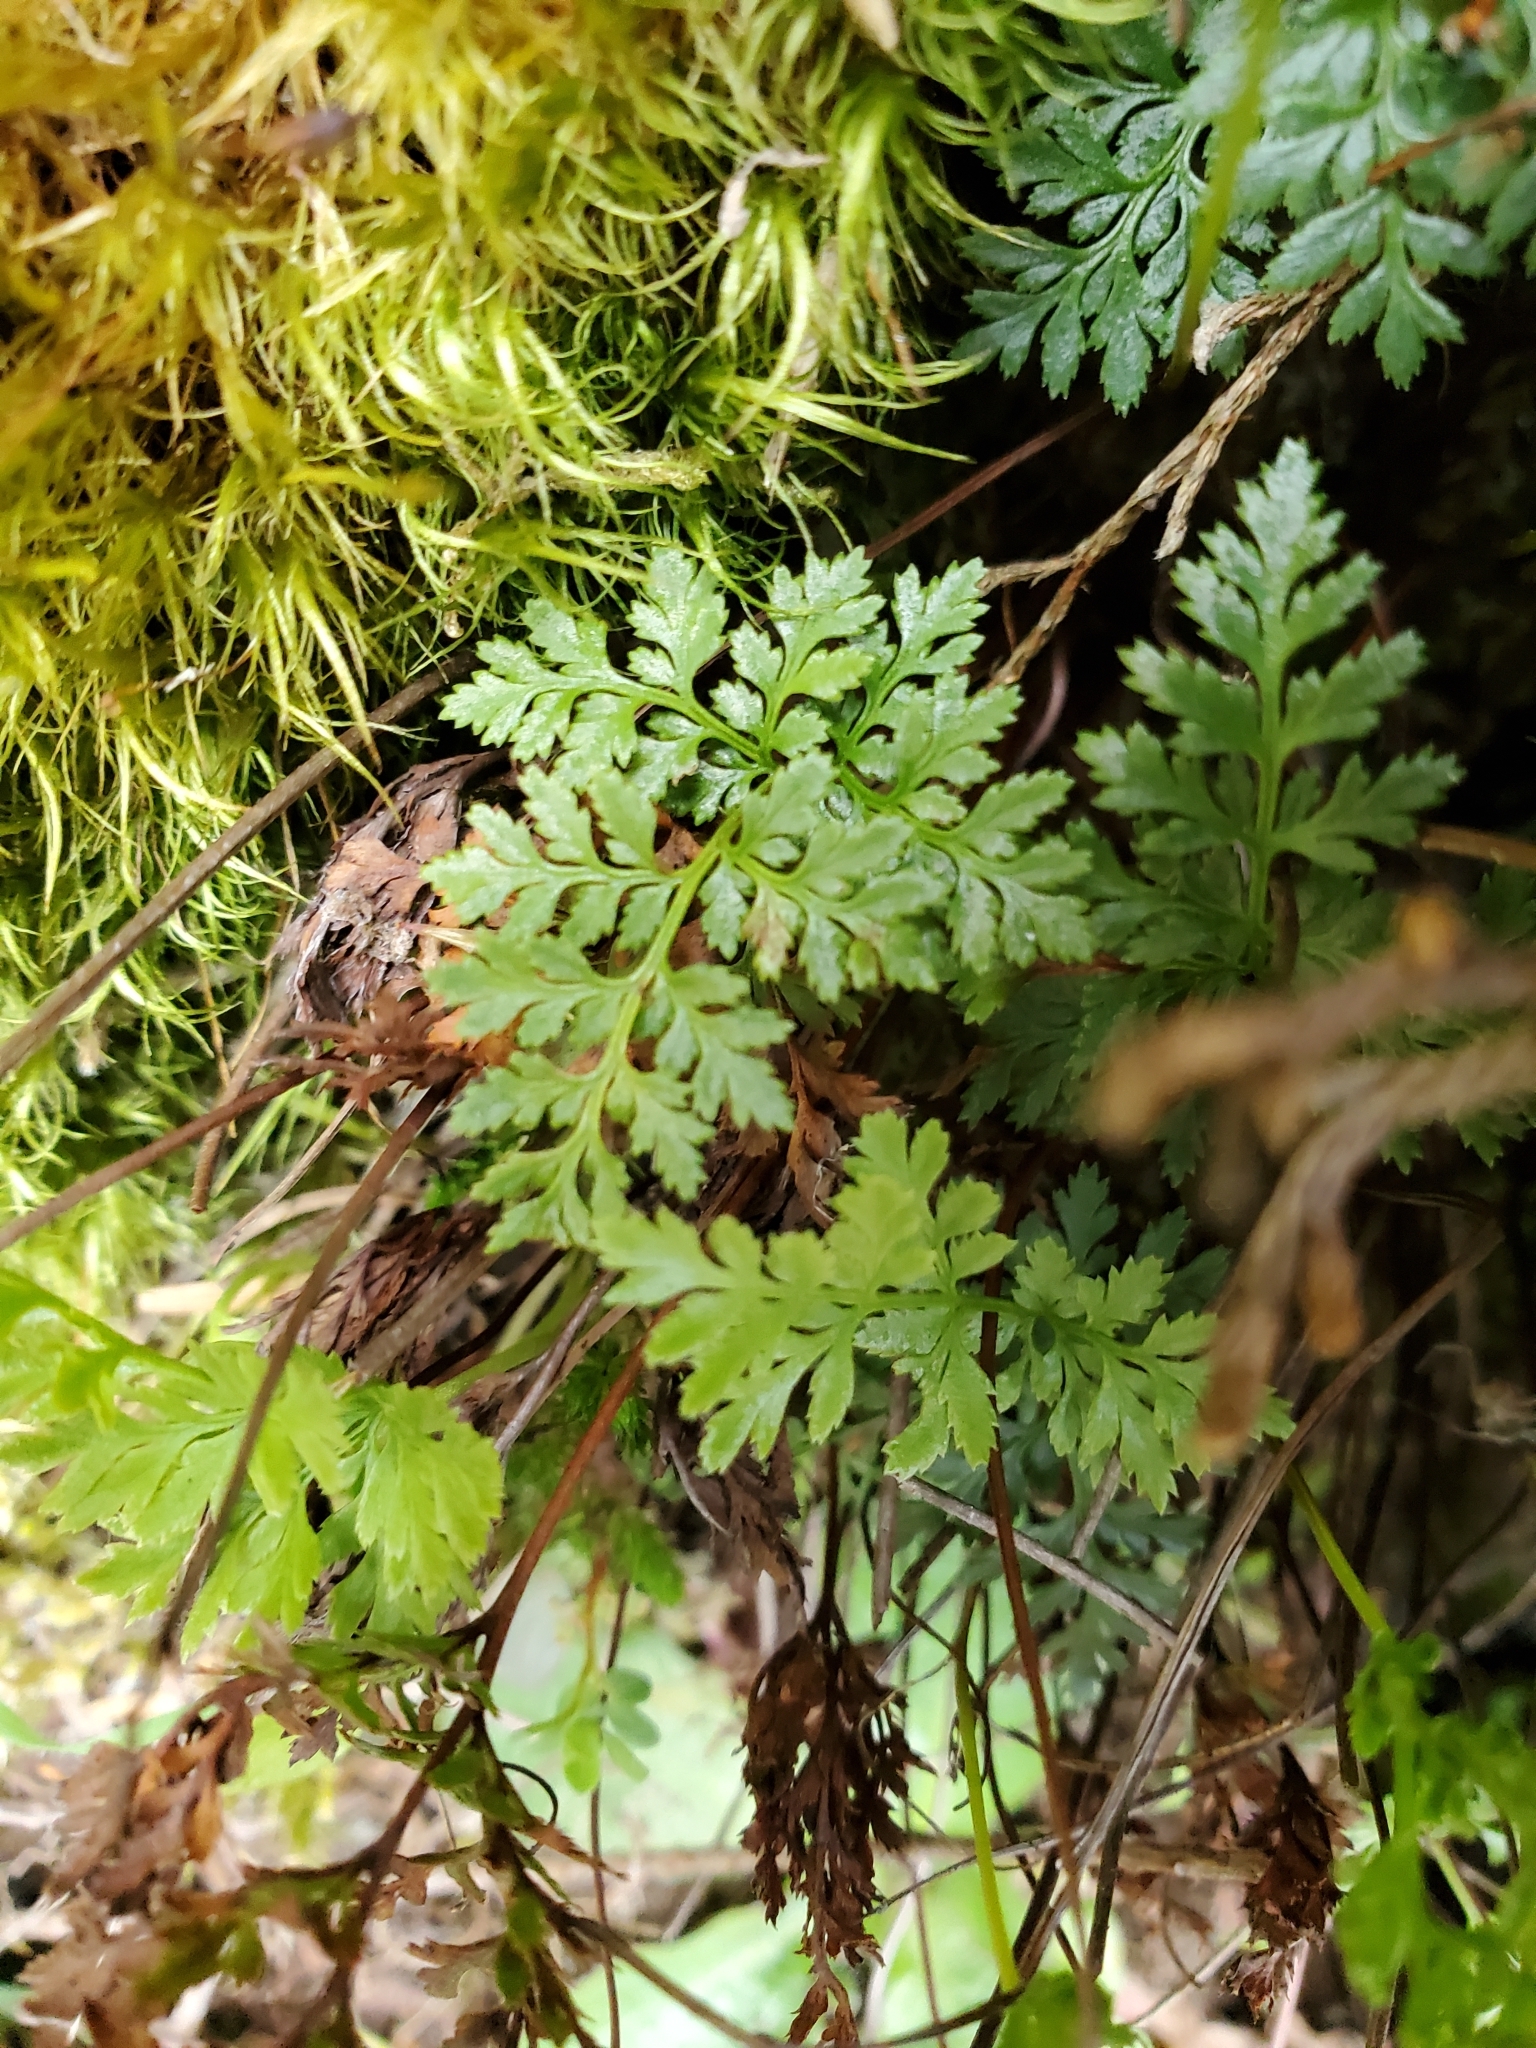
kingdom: Plantae
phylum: Tracheophyta
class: Polypodiopsida
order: Polypodiales
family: Pteridaceae
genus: Cryptogramma
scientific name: Cryptogramma acrostichoides
